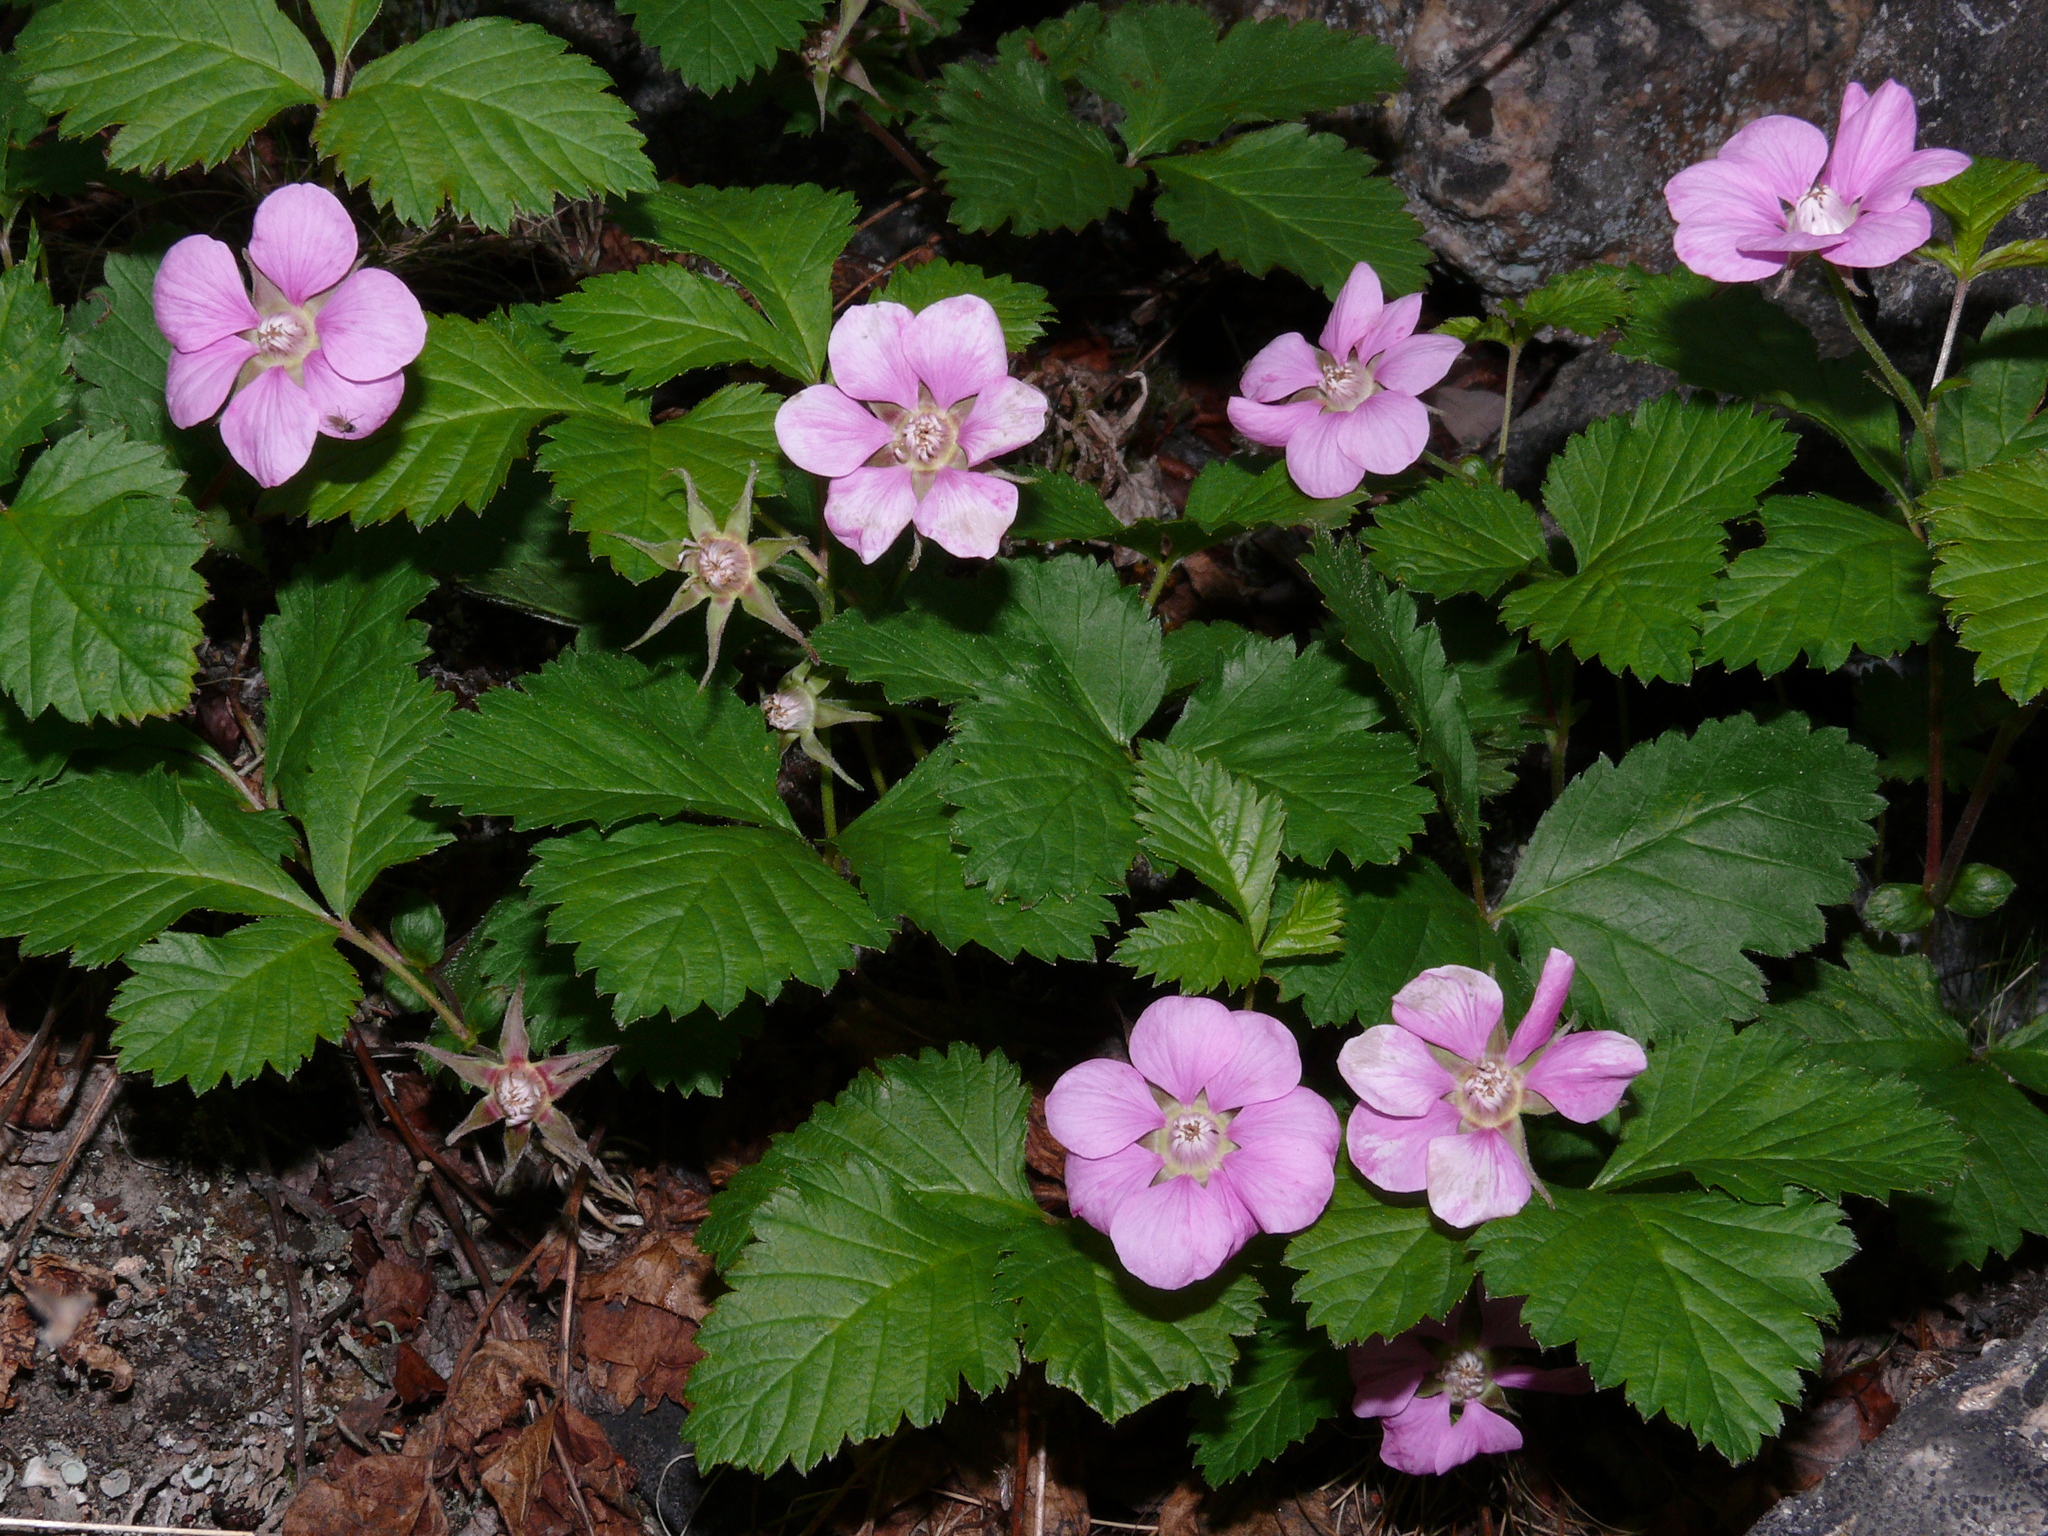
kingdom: Plantae
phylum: Tracheophyta
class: Magnoliopsida
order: Rosales
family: Rosaceae
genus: Rubus
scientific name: Rubus arcticus
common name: Arctic bramble
